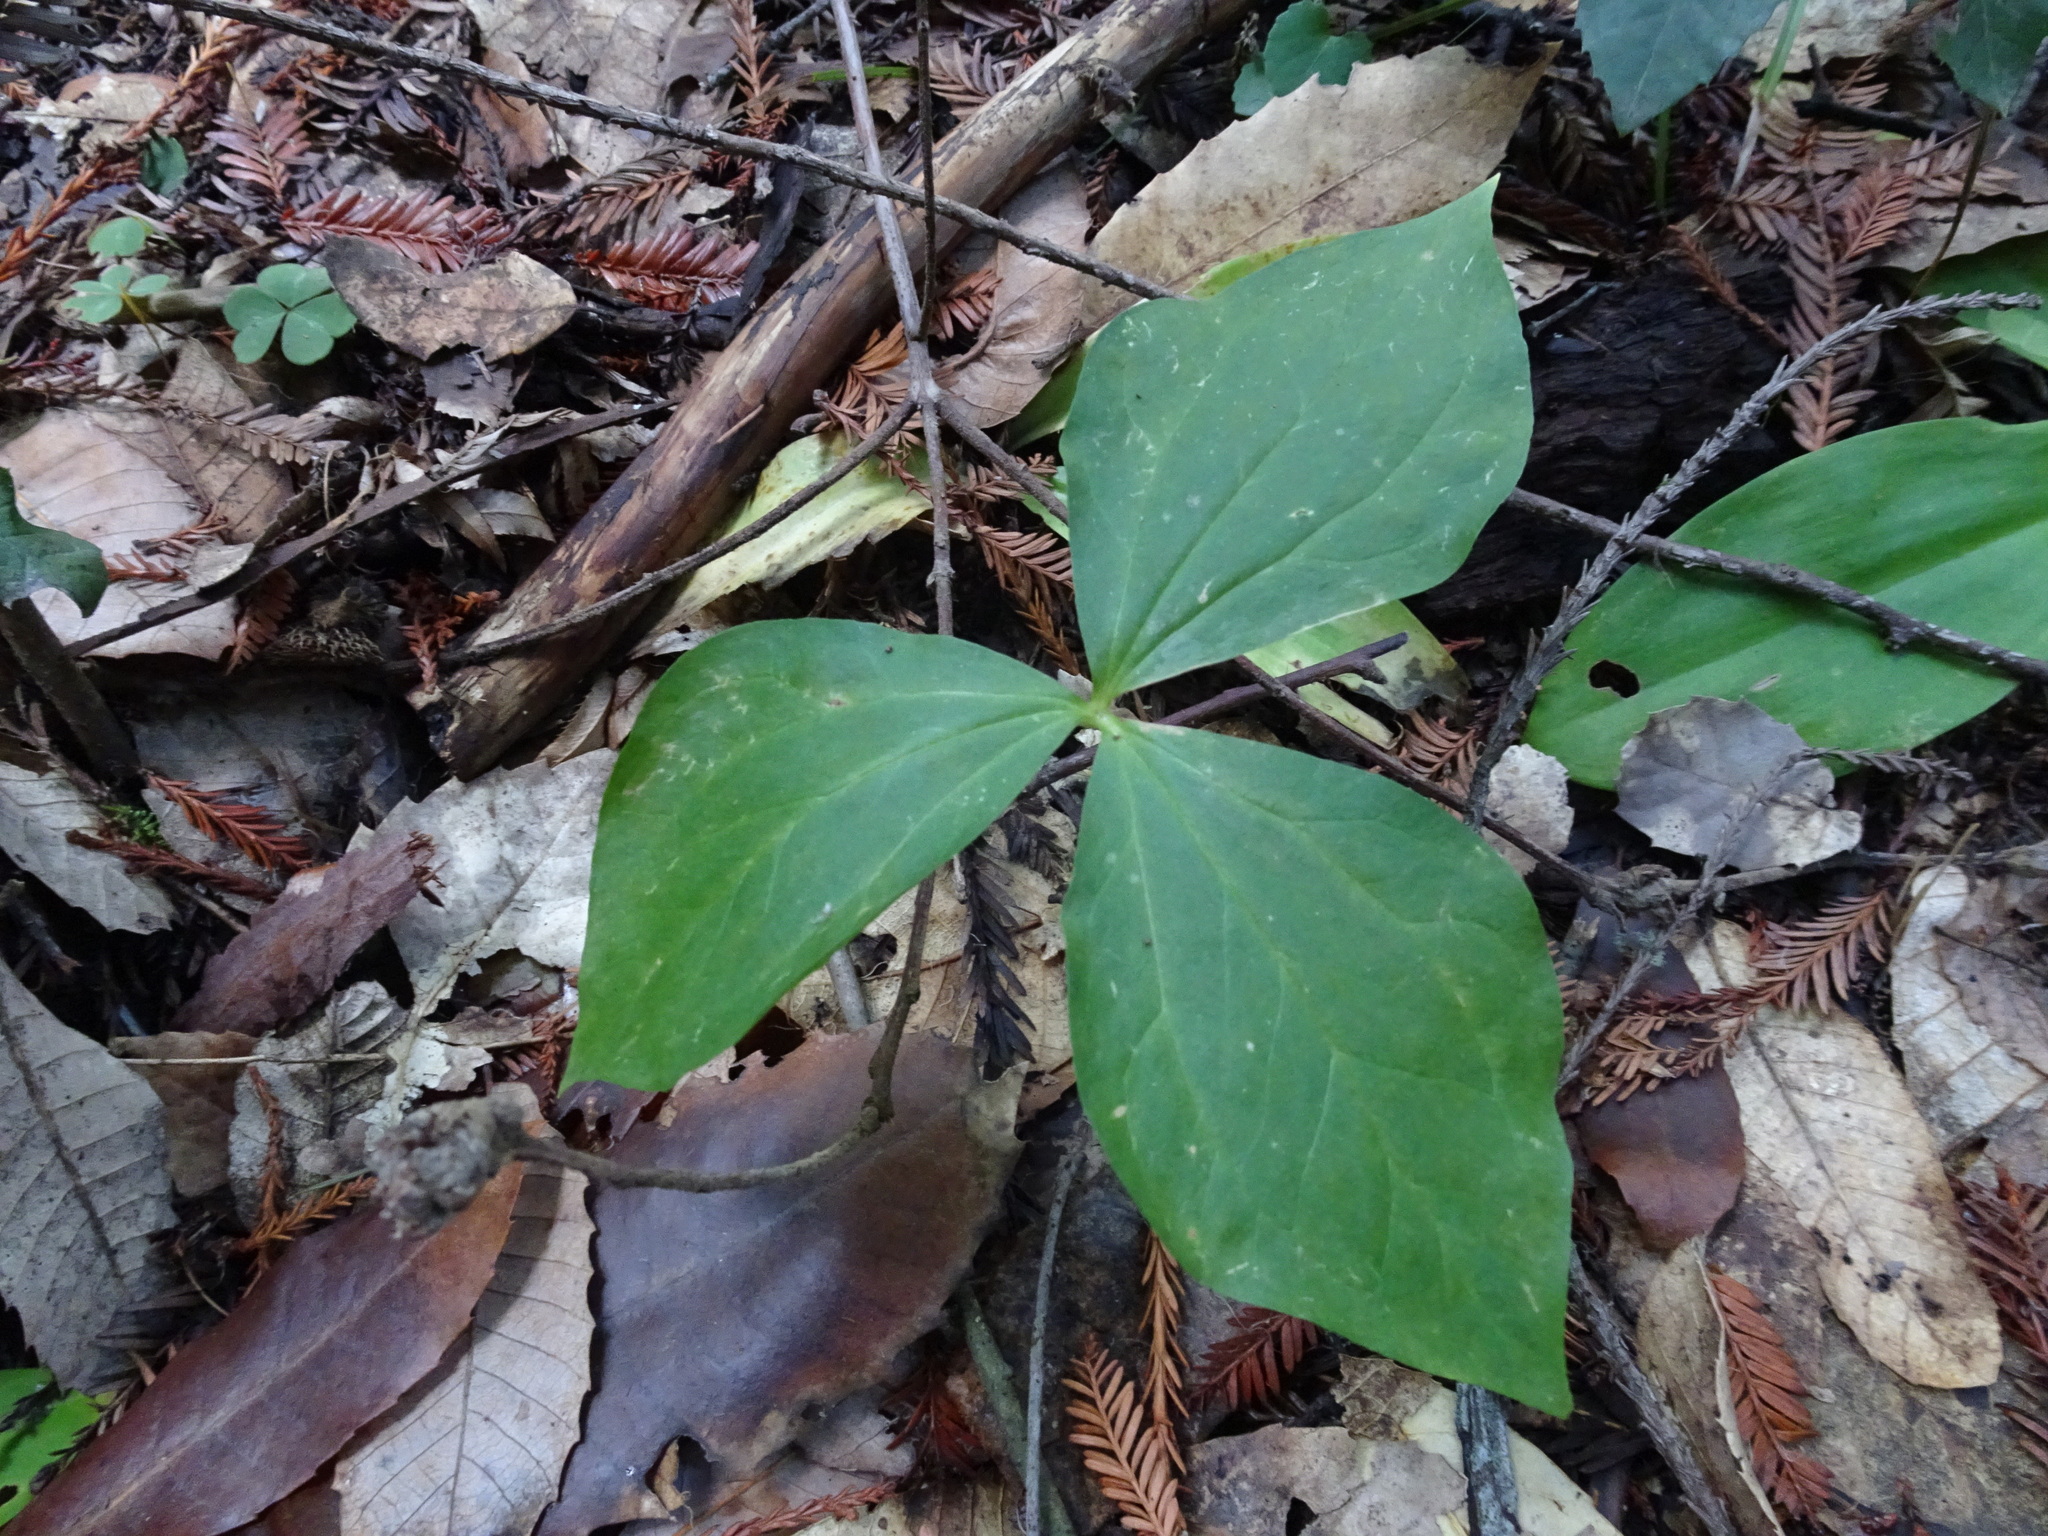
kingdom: Plantae
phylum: Tracheophyta
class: Liliopsida
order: Liliales
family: Melanthiaceae
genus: Trillium
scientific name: Trillium ovatum
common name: Pacific trillium
